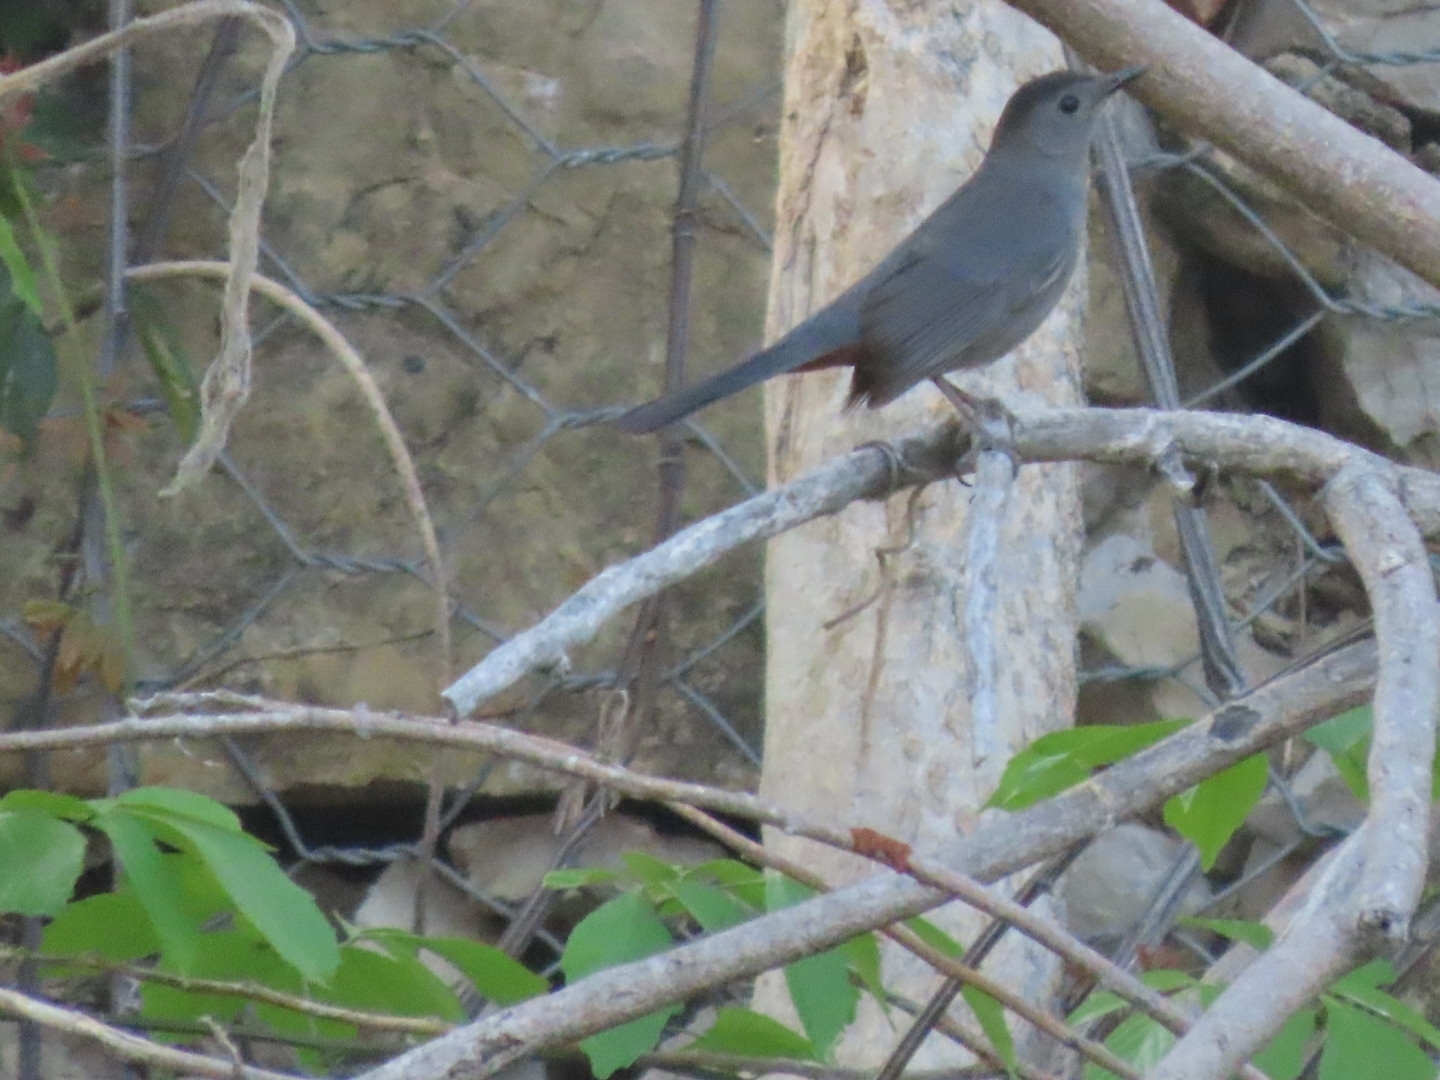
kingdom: Animalia
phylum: Chordata
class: Aves
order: Passeriformes
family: Mimidae
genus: Dumetella
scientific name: Dumetella carolinensis
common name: Gray catbird
